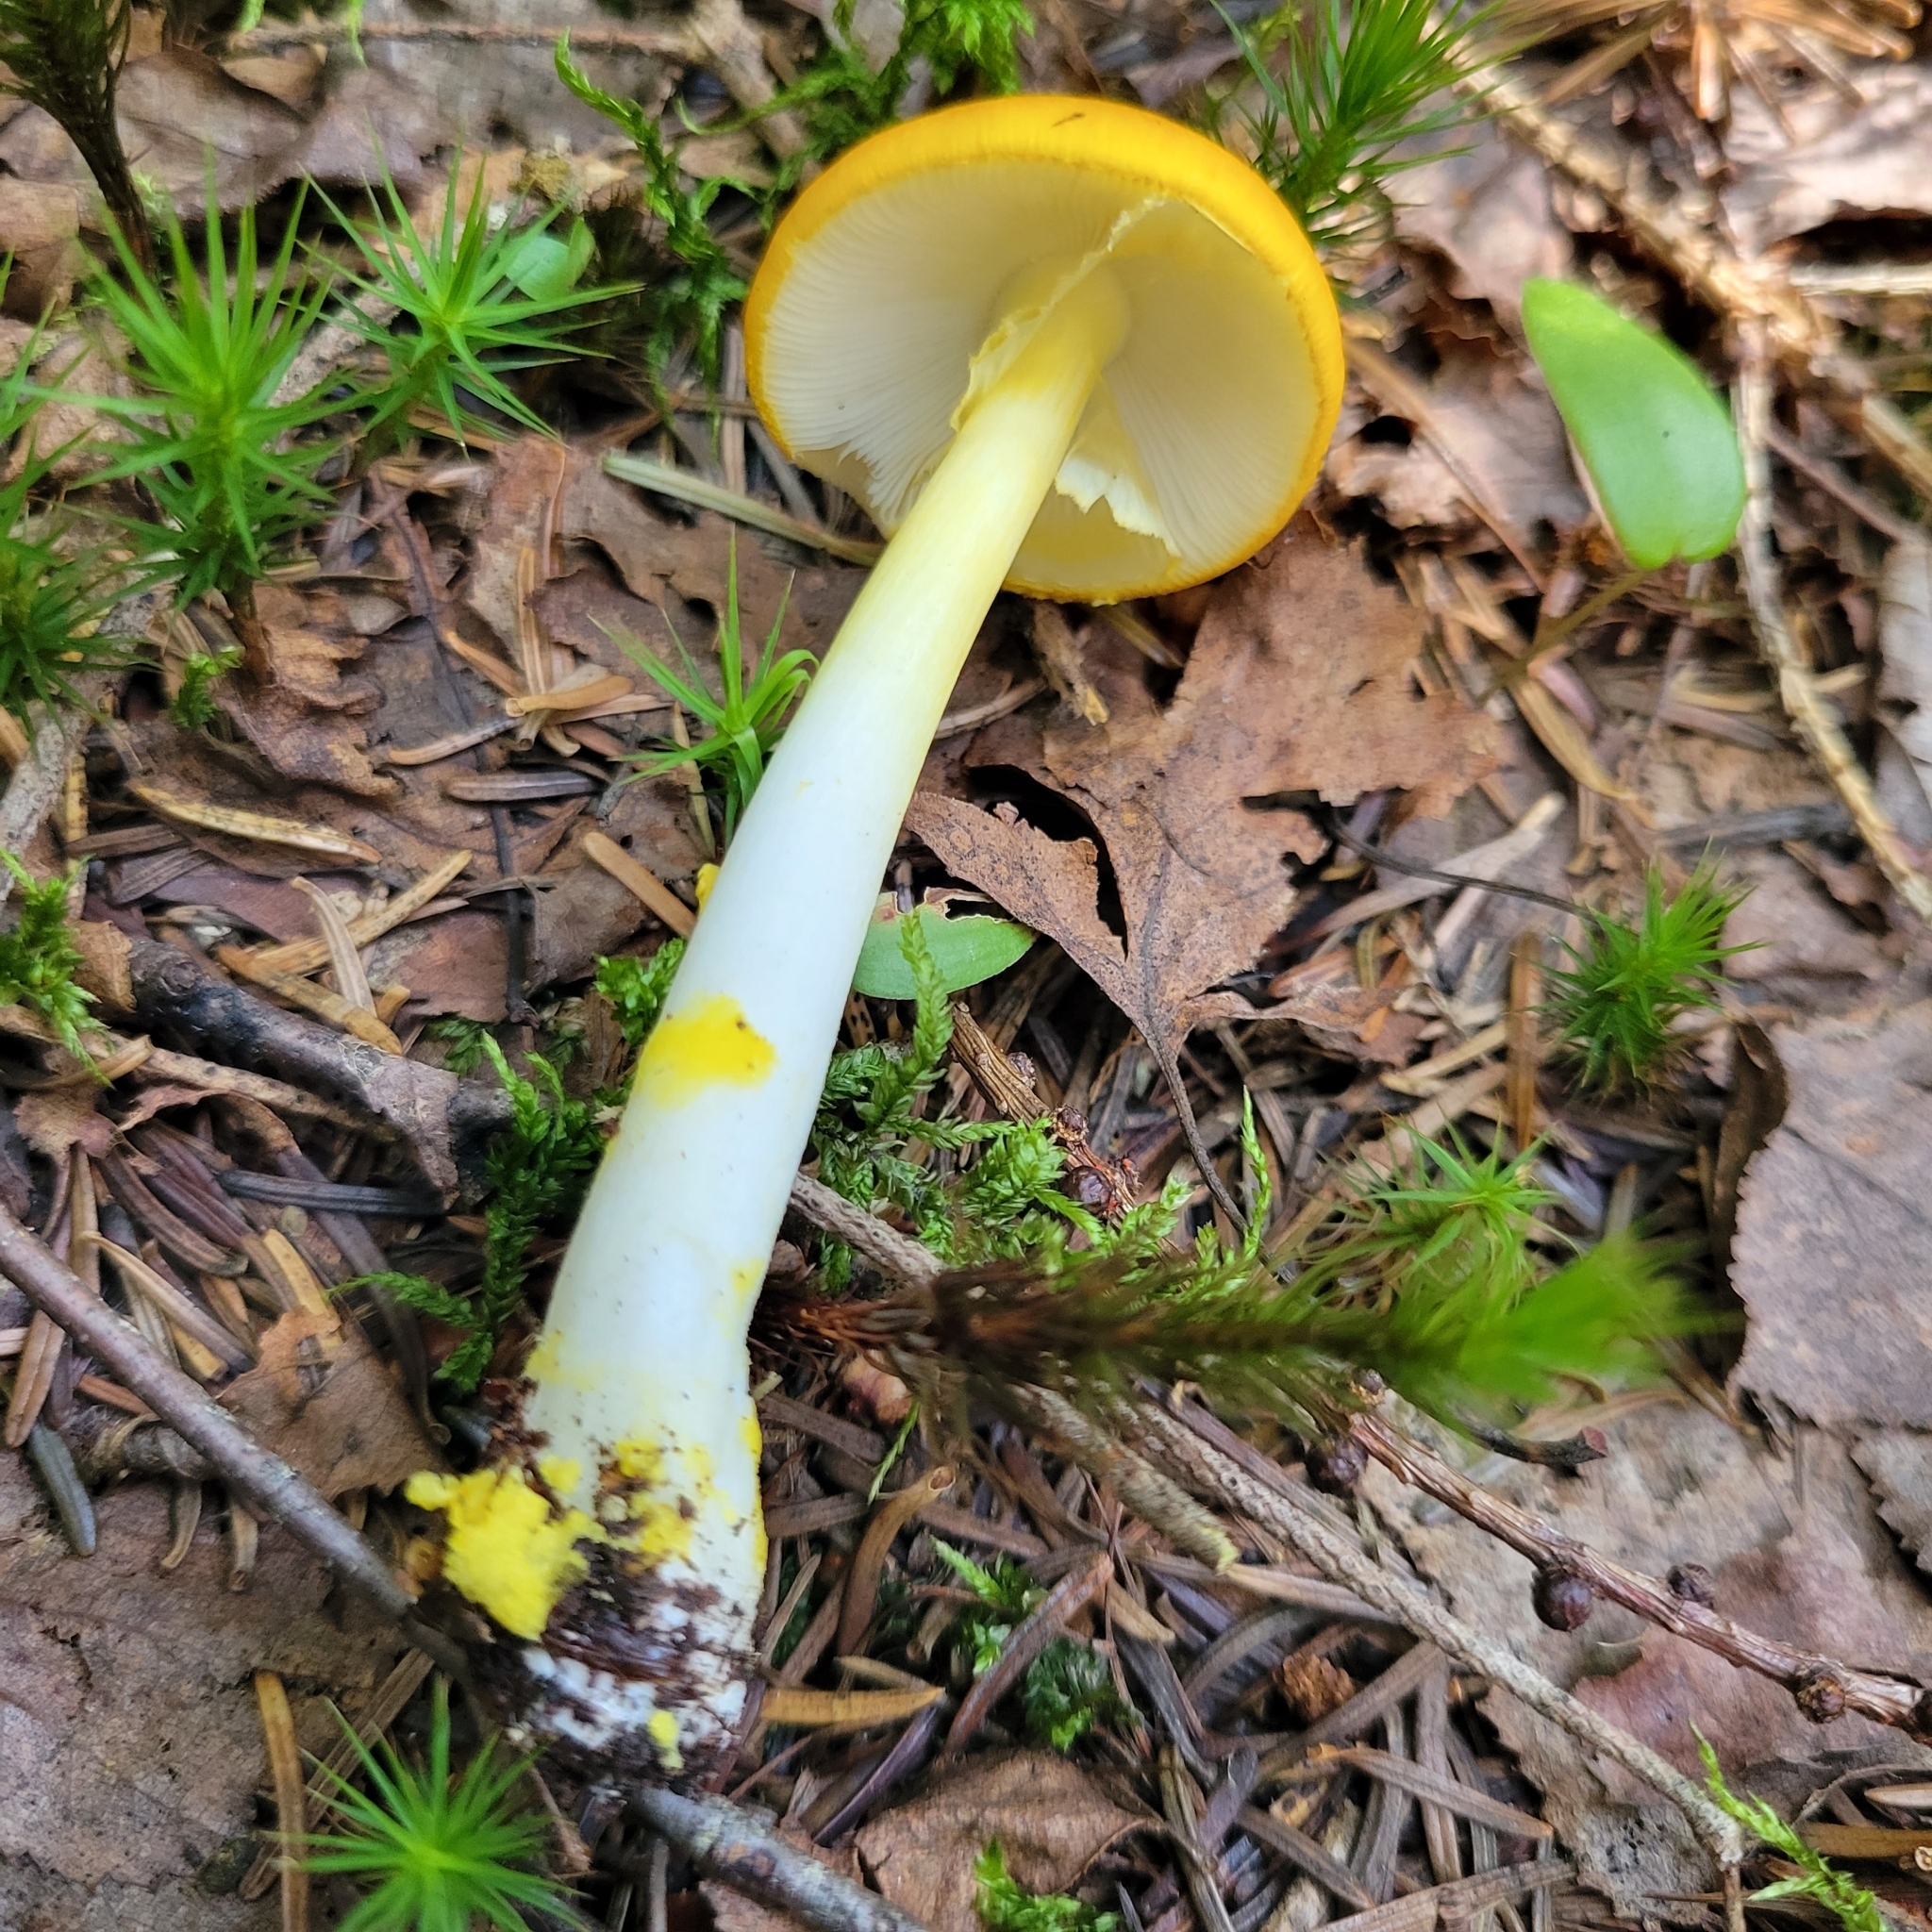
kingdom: Fungi
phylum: Basidiomycota
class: Agaricomycetes
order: Agaricales
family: Amanitaceae
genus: Amanita
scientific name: Amanita elongata
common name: Peck's yellow dust amanita
